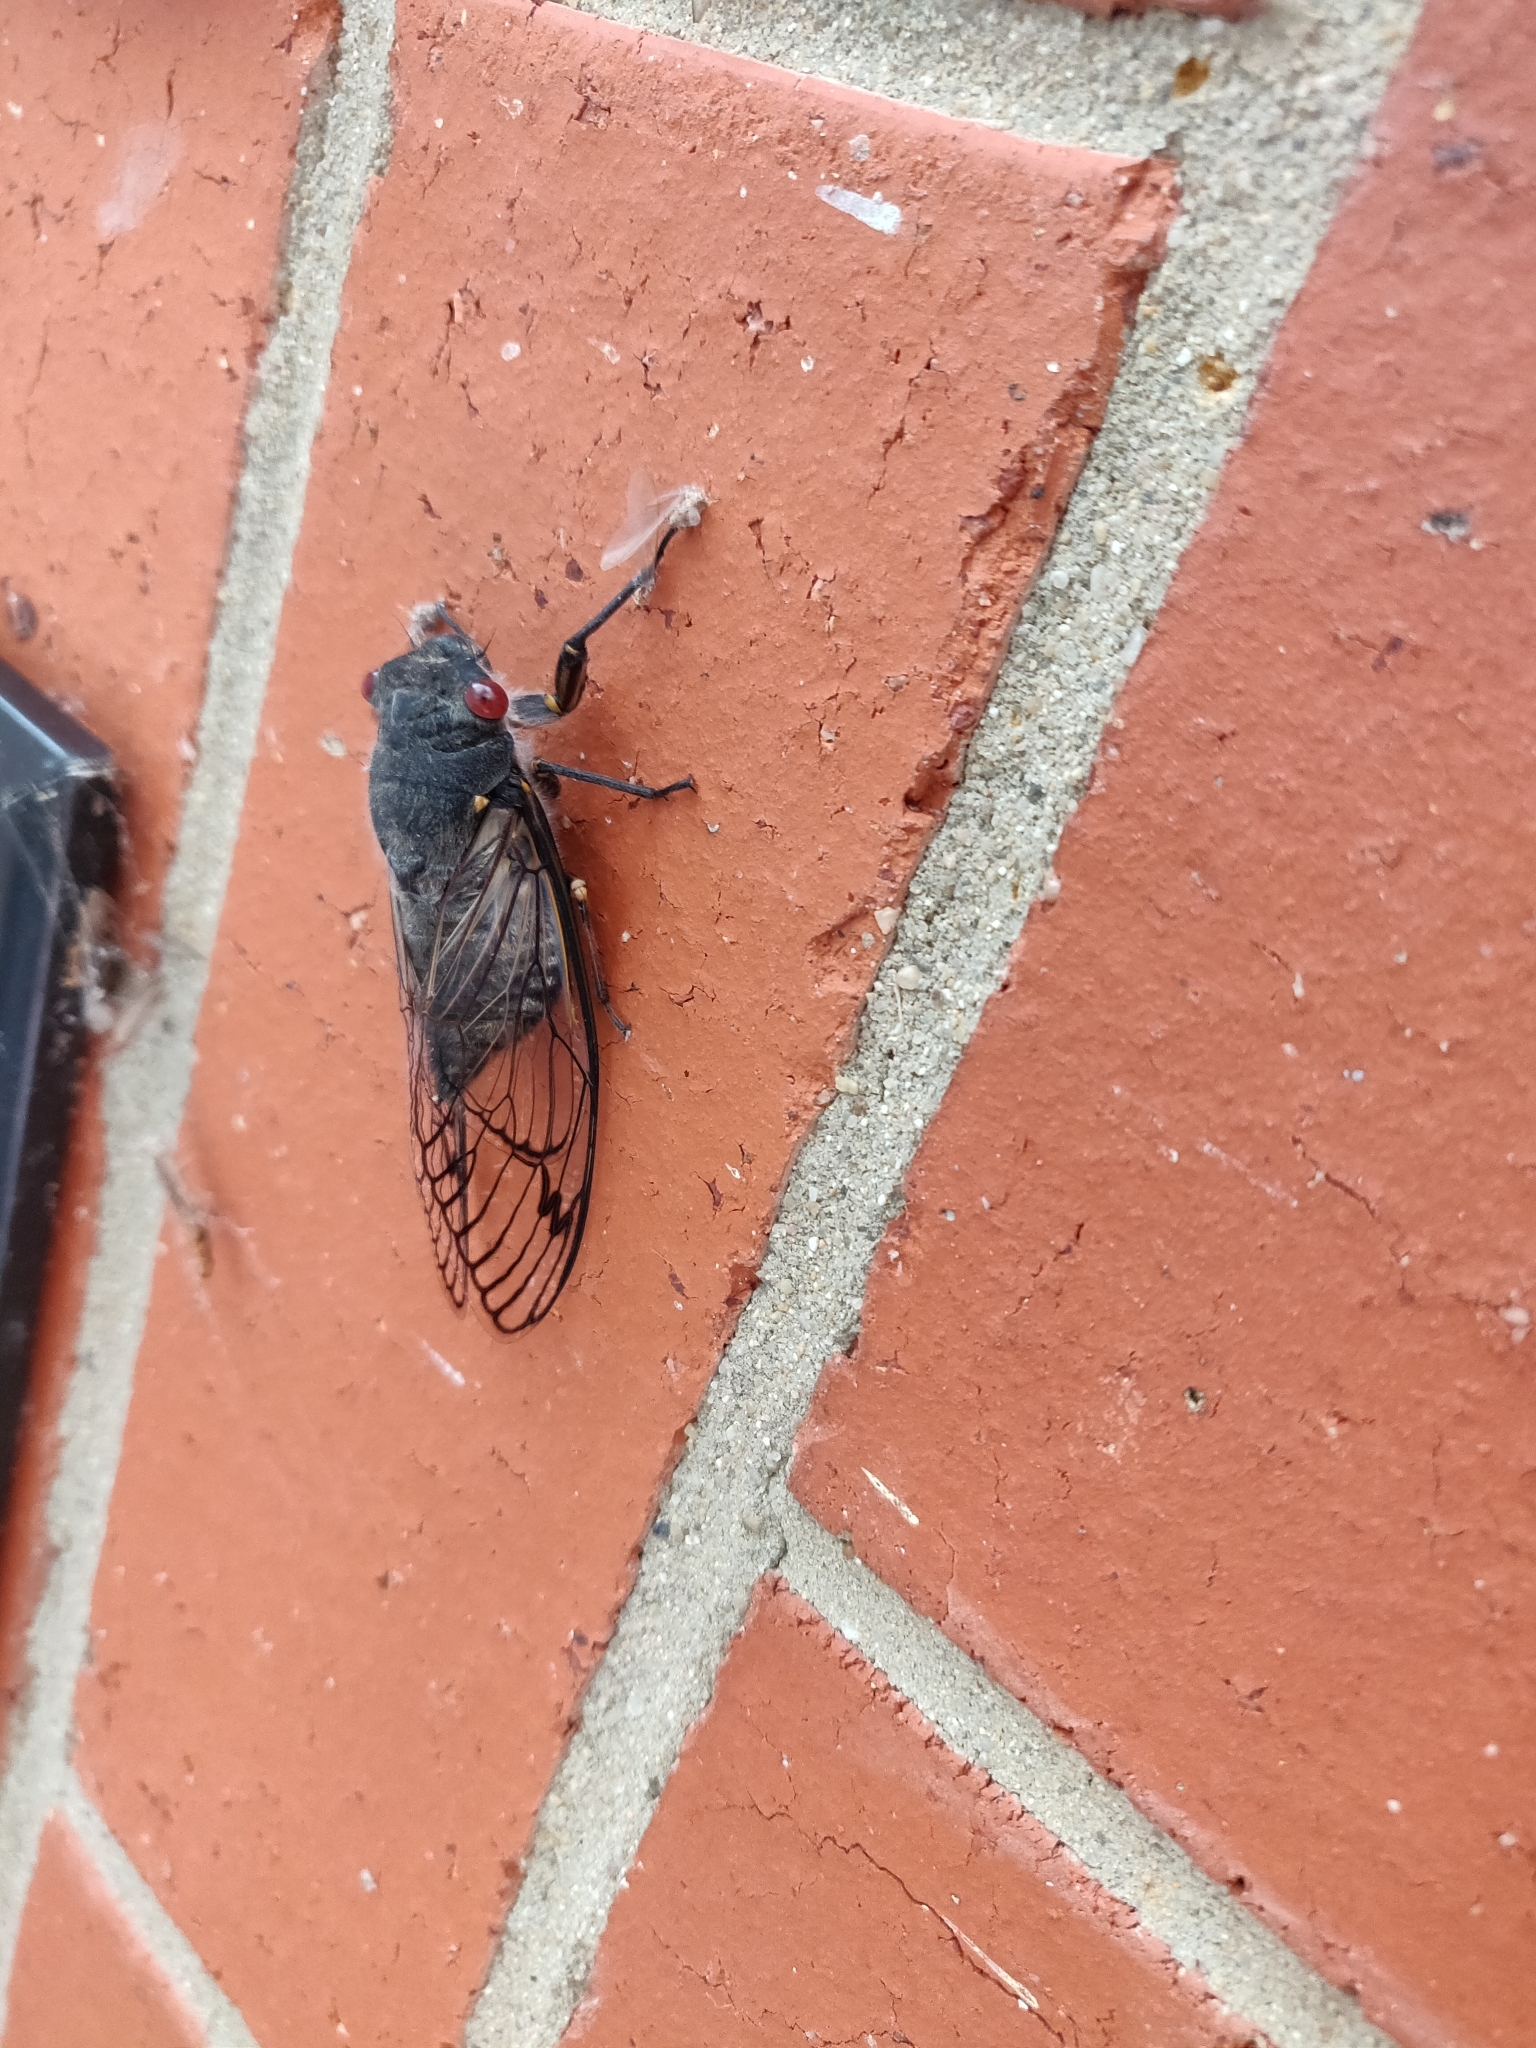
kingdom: Animalia
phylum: Arthropoda
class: Insecta
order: Hemiptera
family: Cicadidae
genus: Psaltoda
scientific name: Psaltoda moerens
